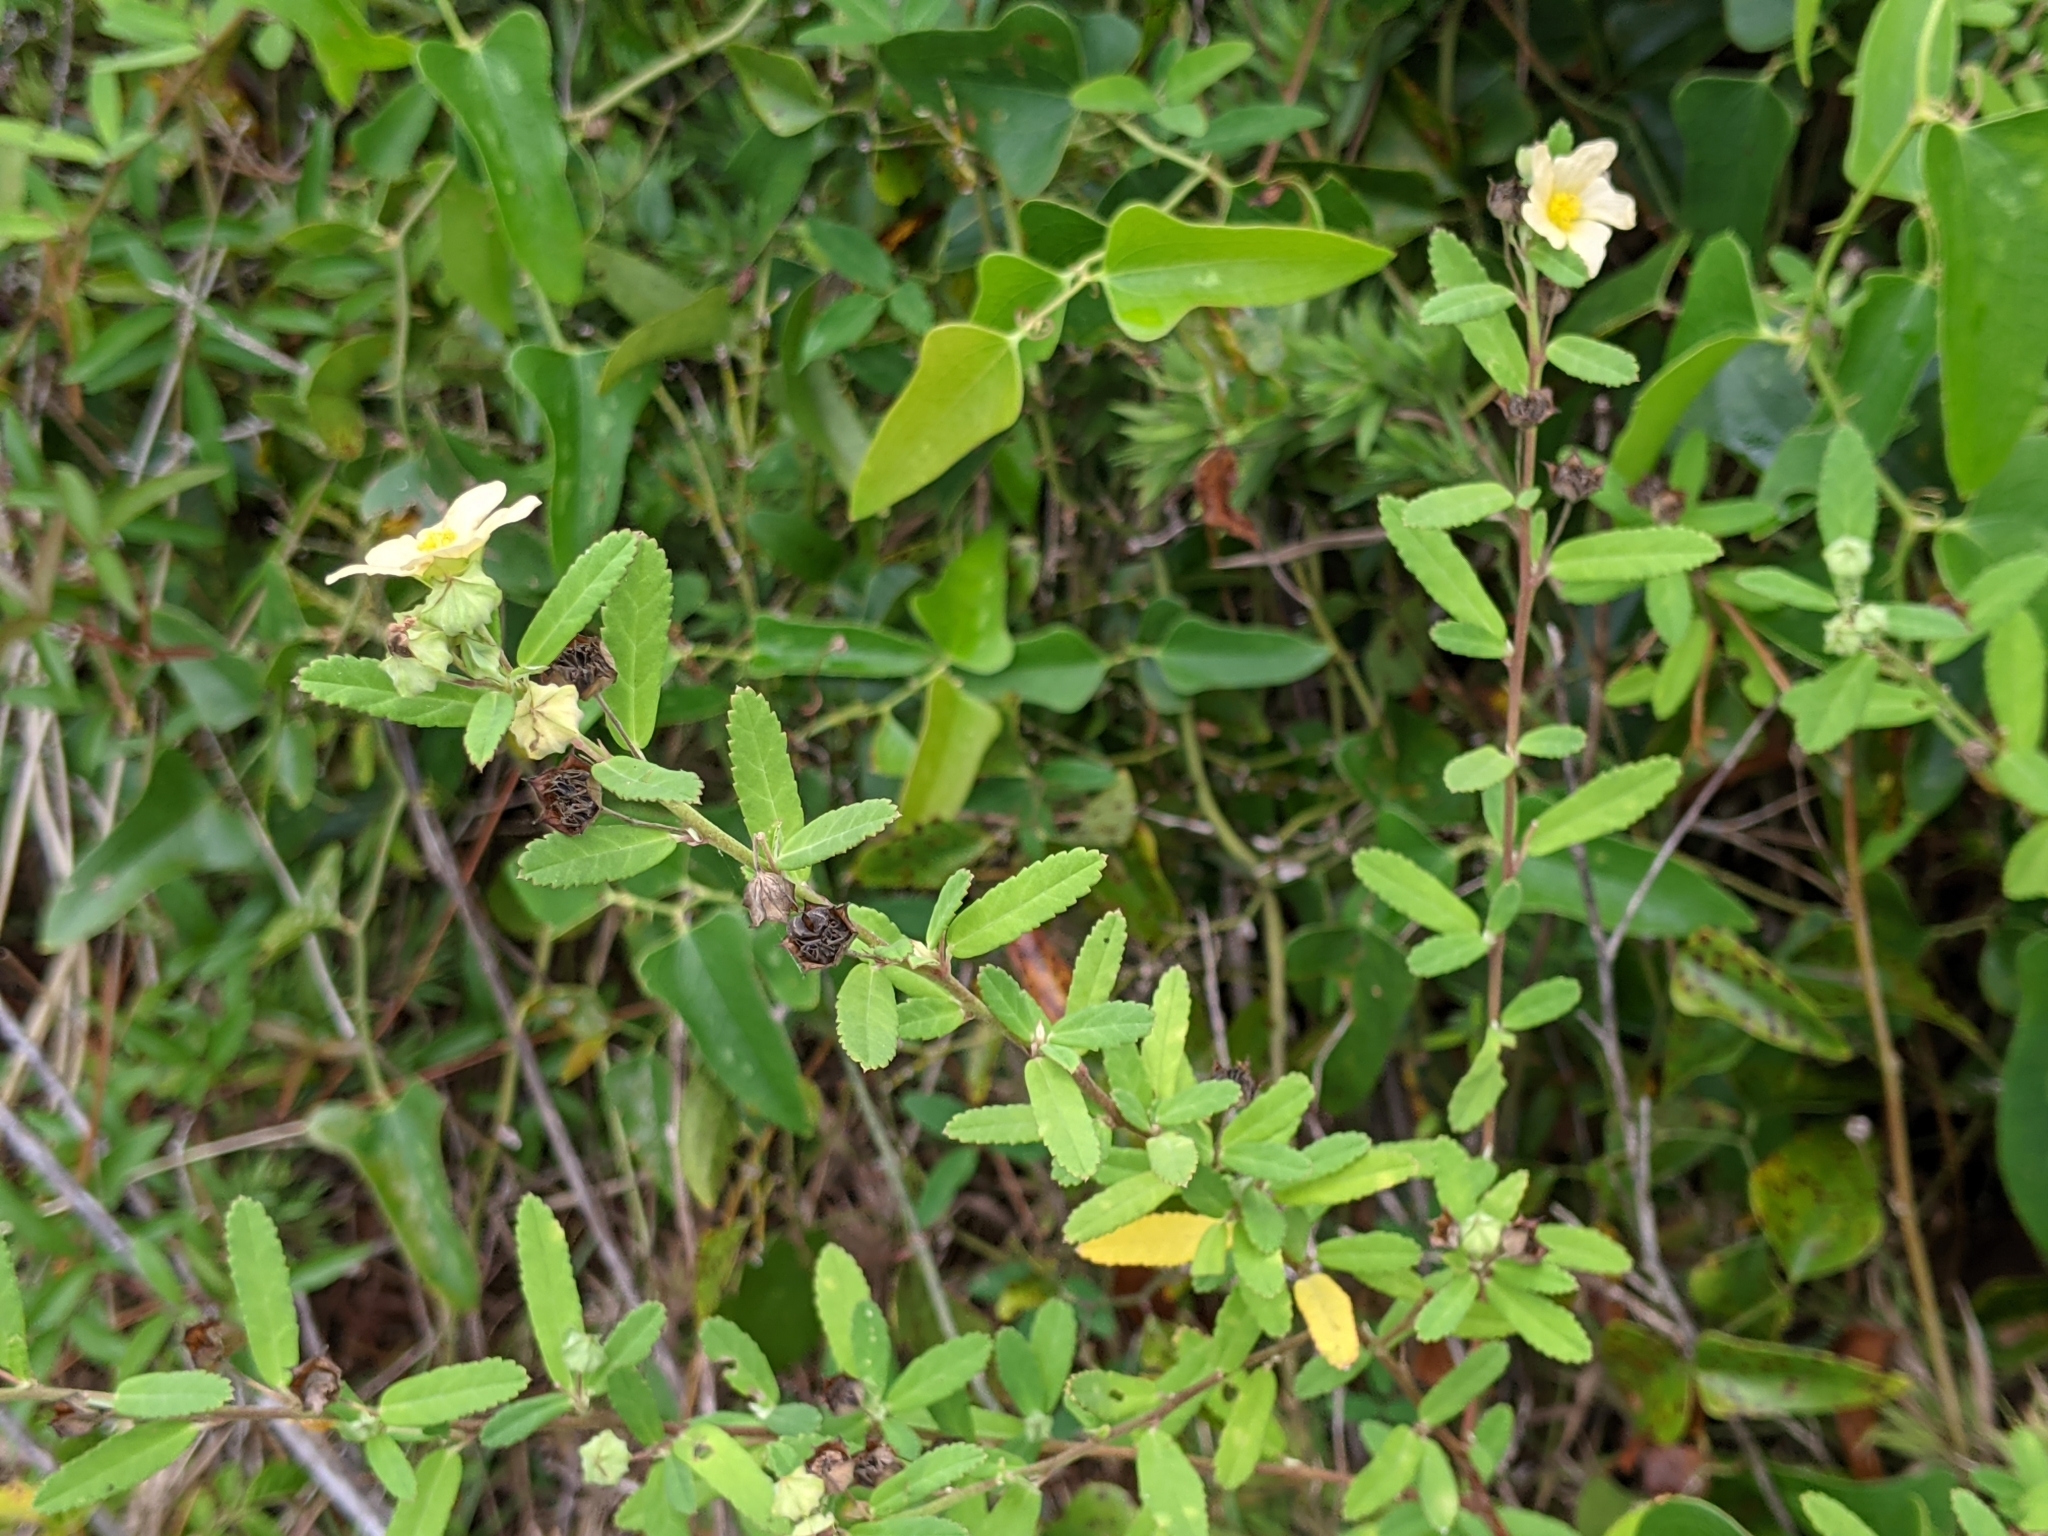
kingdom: Plantae
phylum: Tracheophyta
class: Magnoliopsida
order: Malvales
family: Malvaceae
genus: Sida
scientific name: Sida rhombifolia
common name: Queensland-hemp
